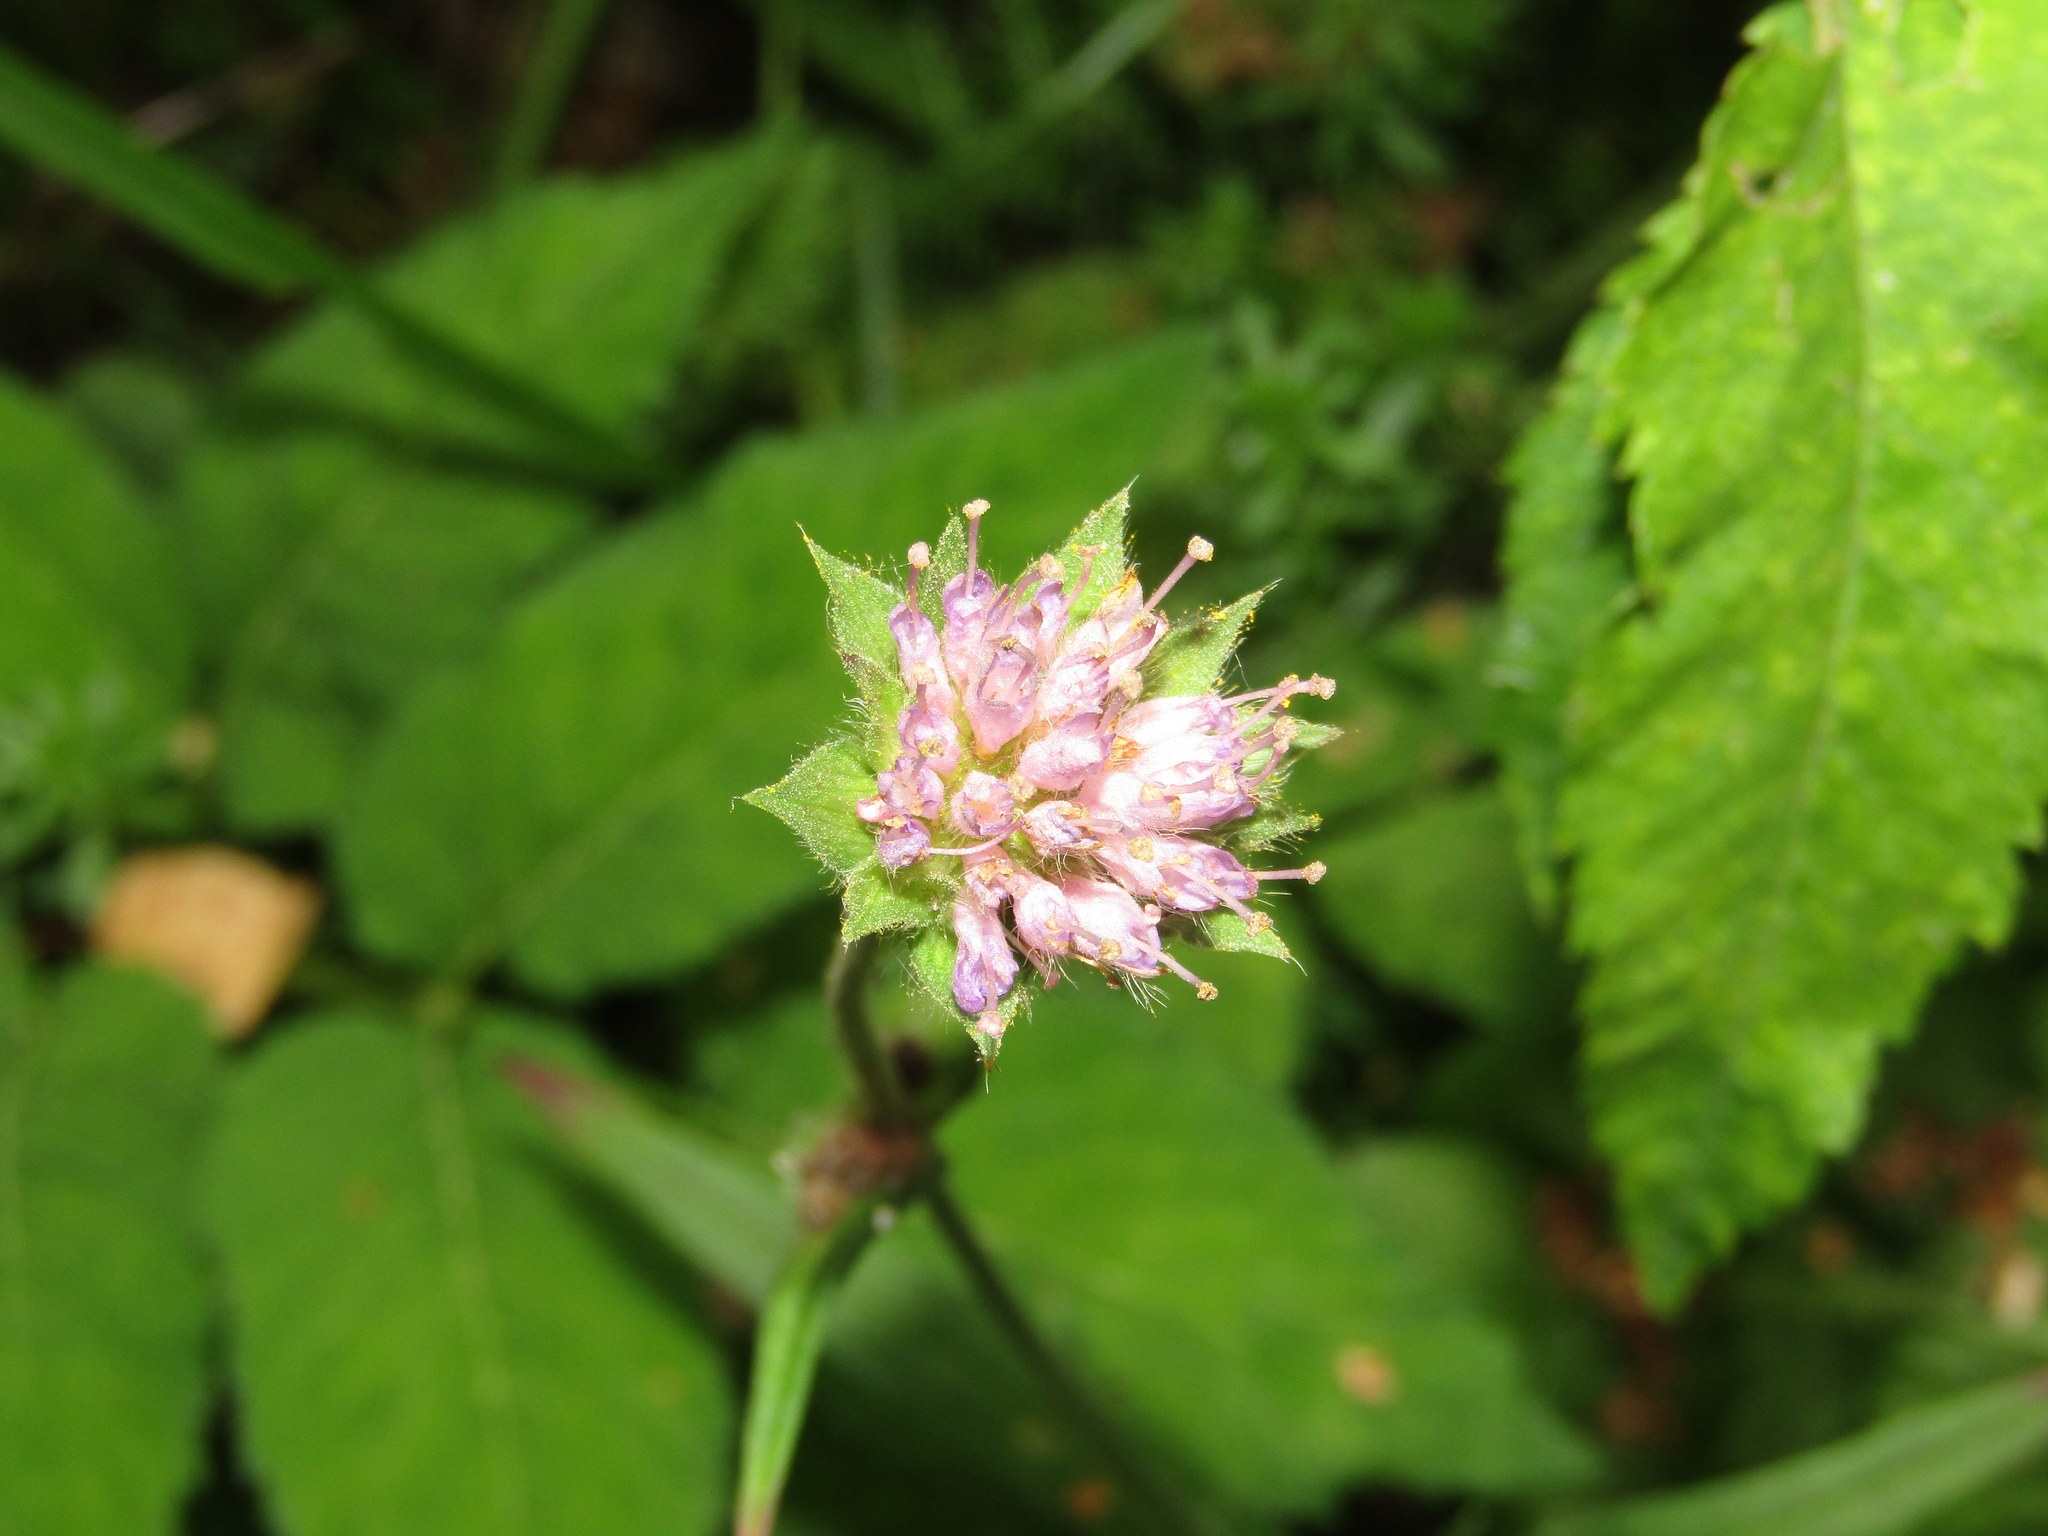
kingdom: Plantae
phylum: Tracheophyta
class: Magnoliopsida
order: Dipsacales
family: Caprifoliaceae
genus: Succisa
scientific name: Succisa pratensis
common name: Devil's-bit
